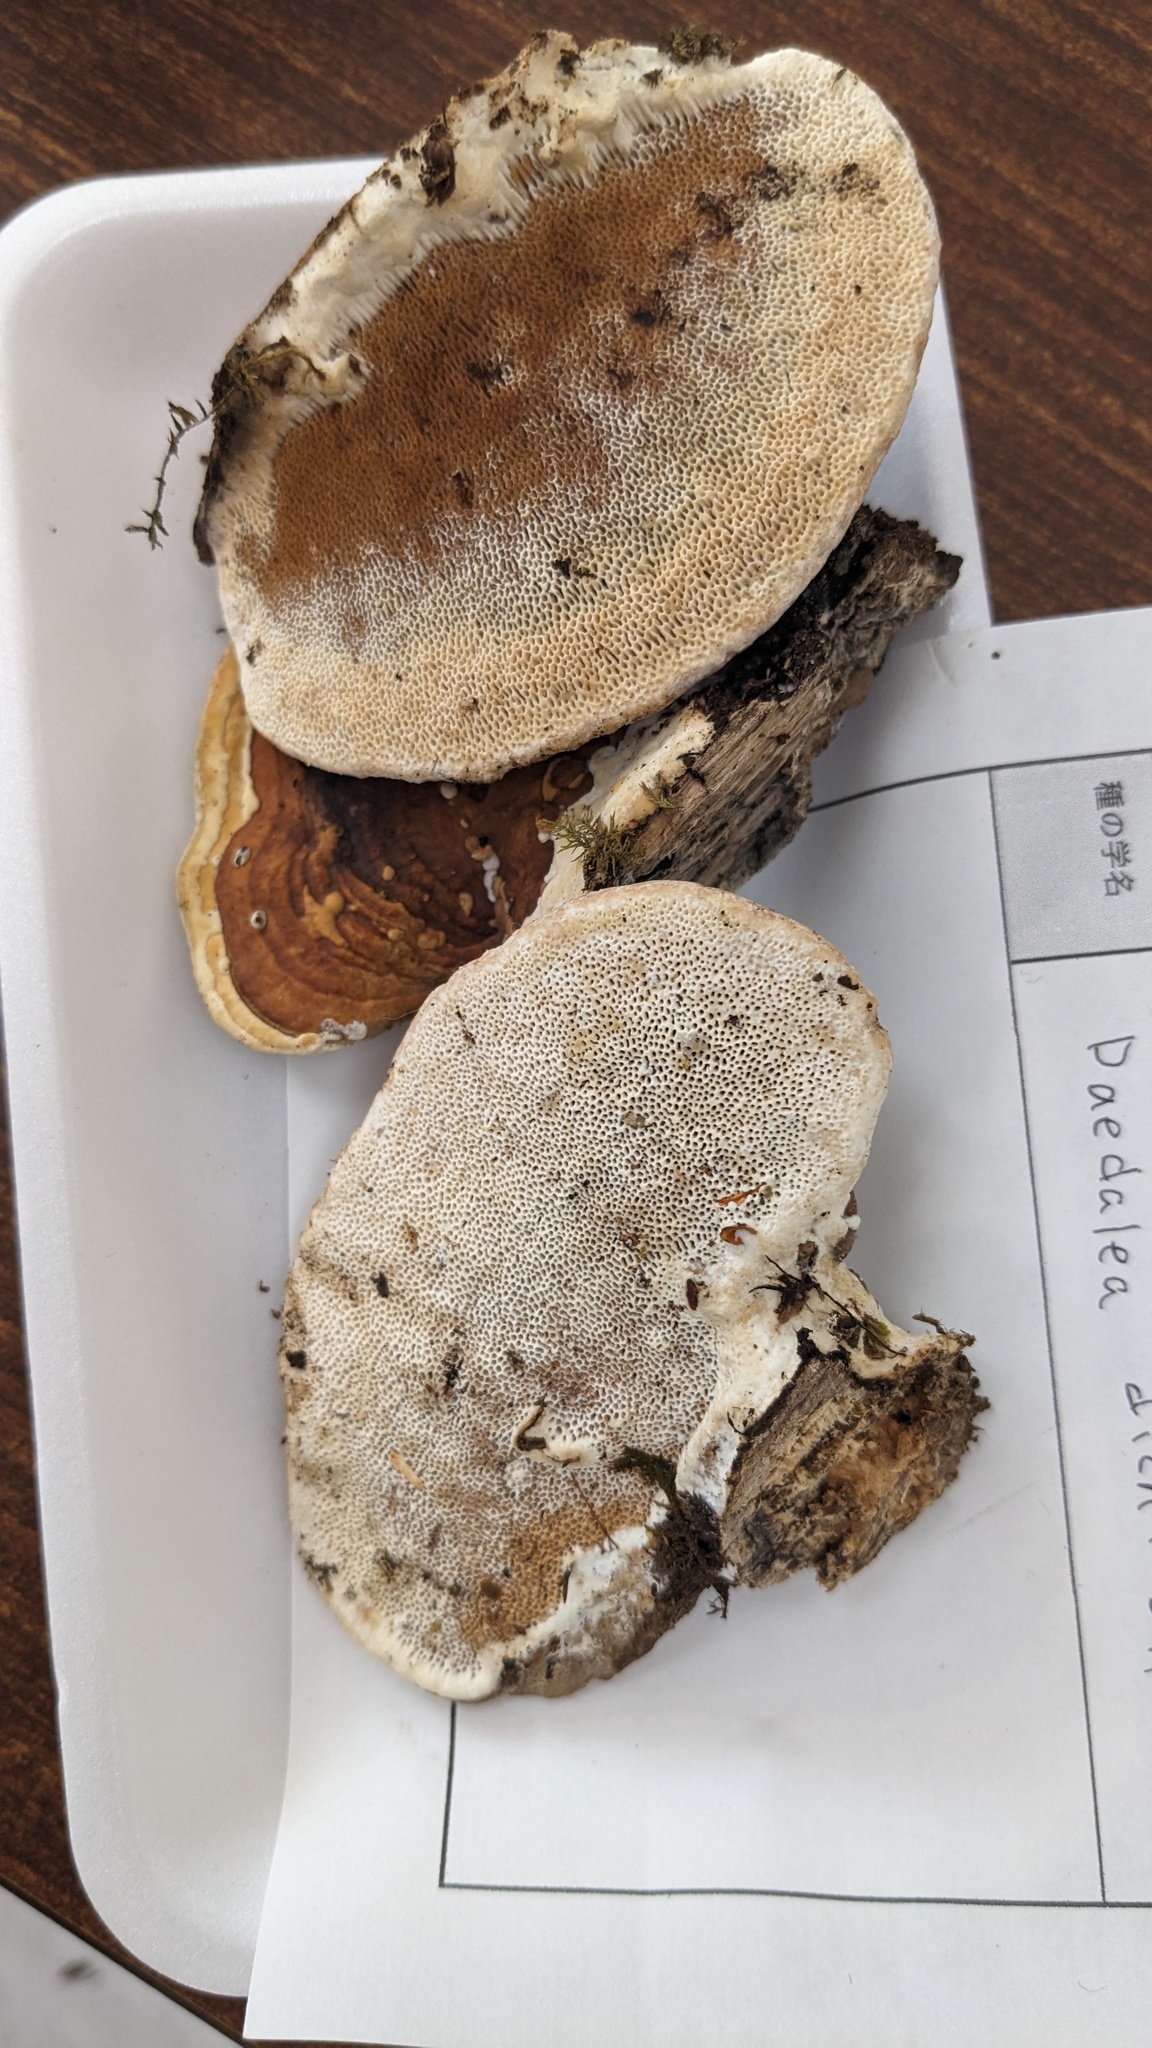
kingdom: Fungi
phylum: Basidiomycota
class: Agaricomycetes
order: Polyporales
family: Fomitopsidaceae
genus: Fomitopsis
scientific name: Fomitopsis
